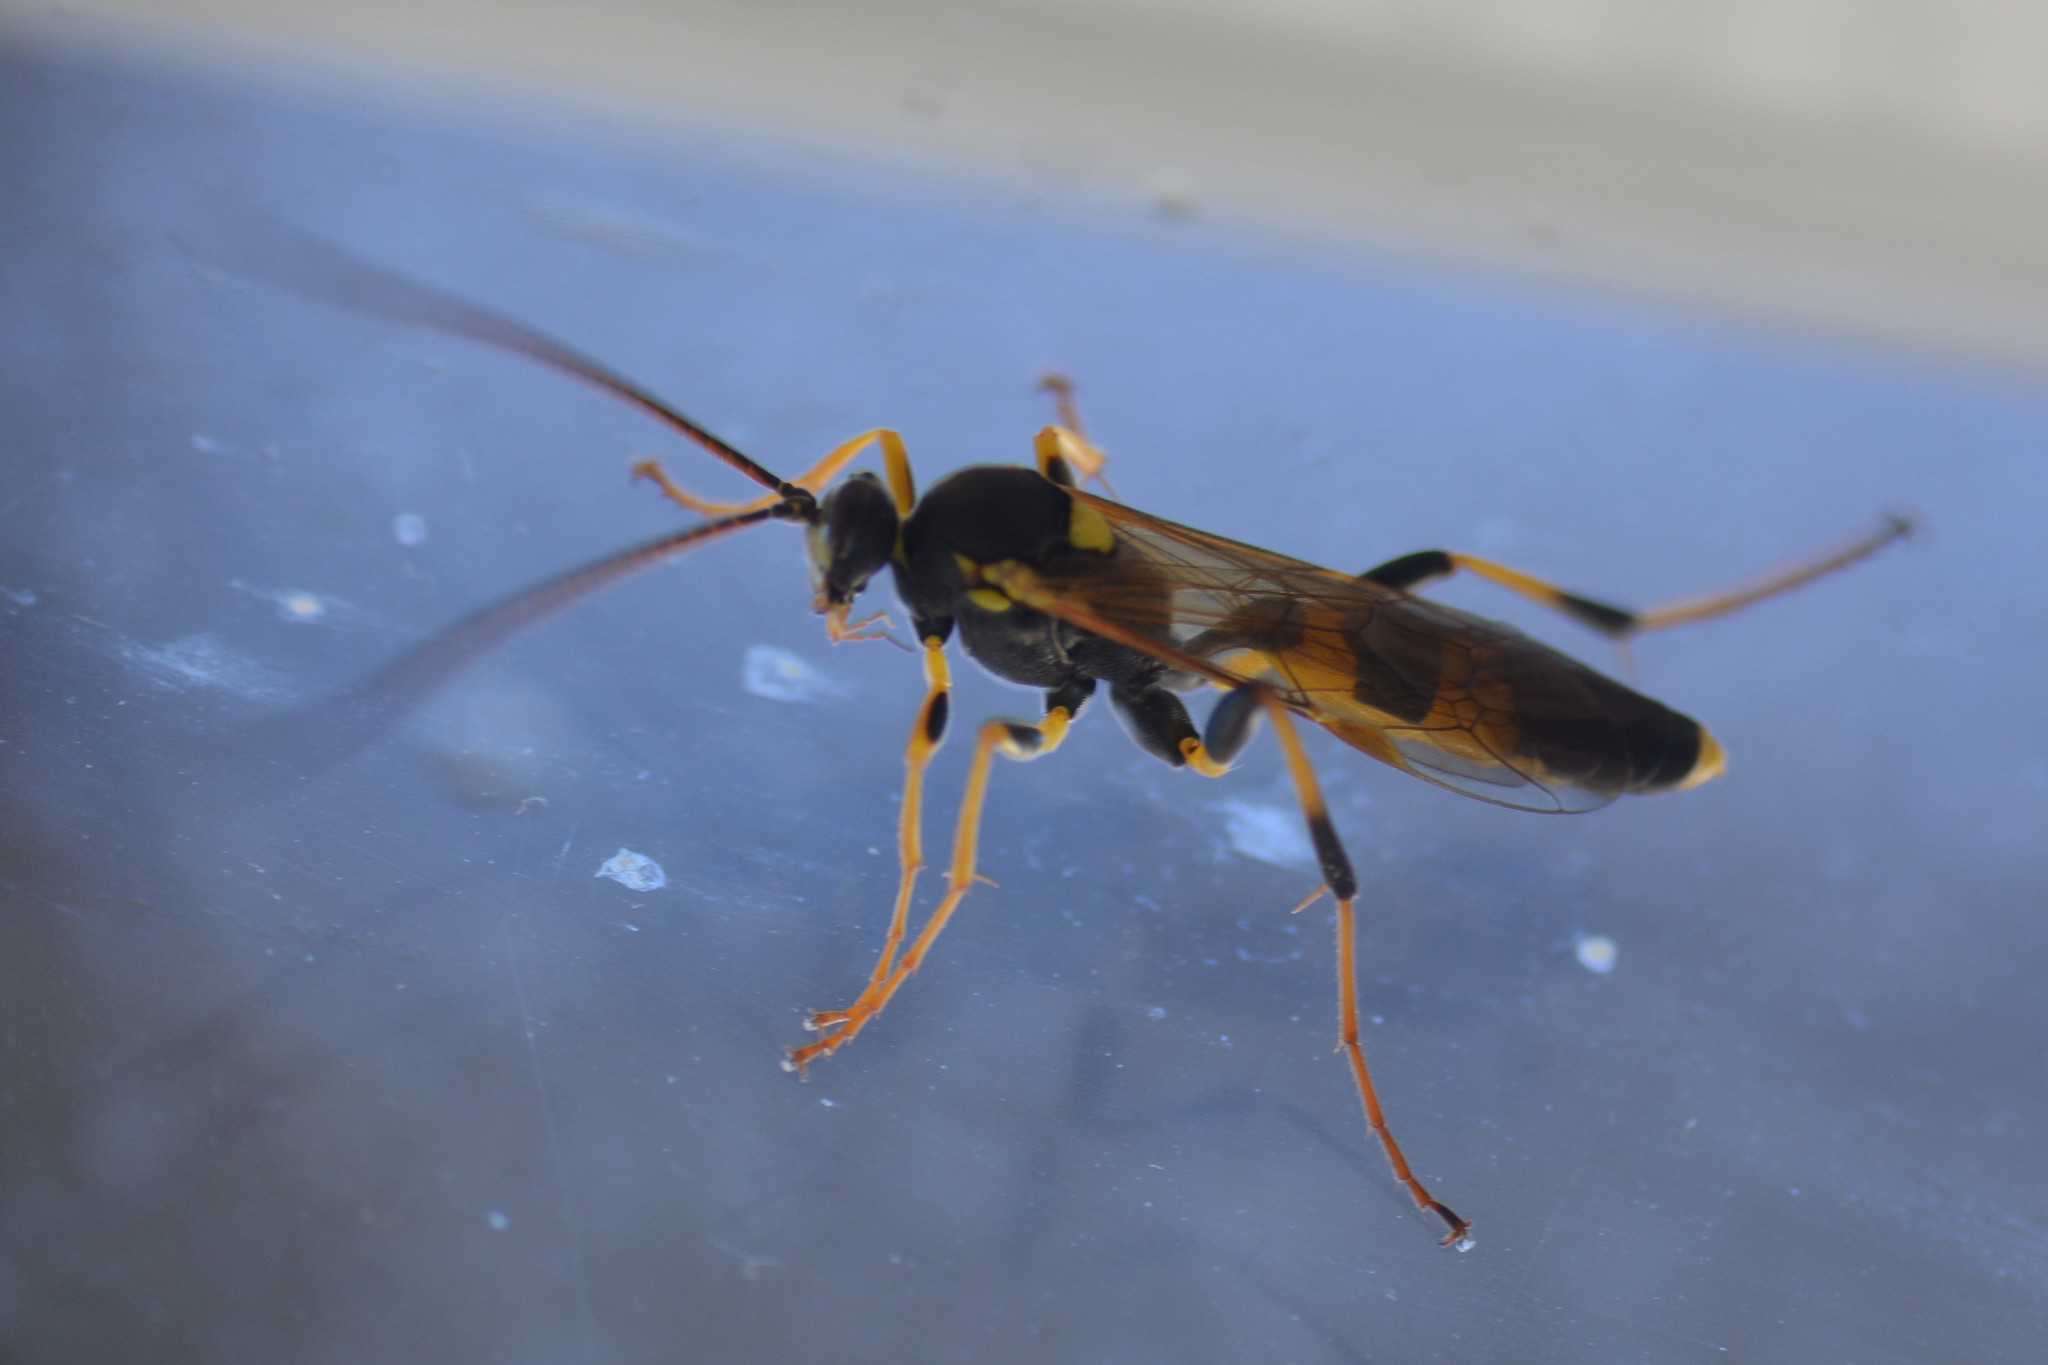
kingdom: Animalia
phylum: Arthropoda
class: Insecta
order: Hymenoptera
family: Ichneumonidae
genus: Amblyteles
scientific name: Amblyteles armatorius
